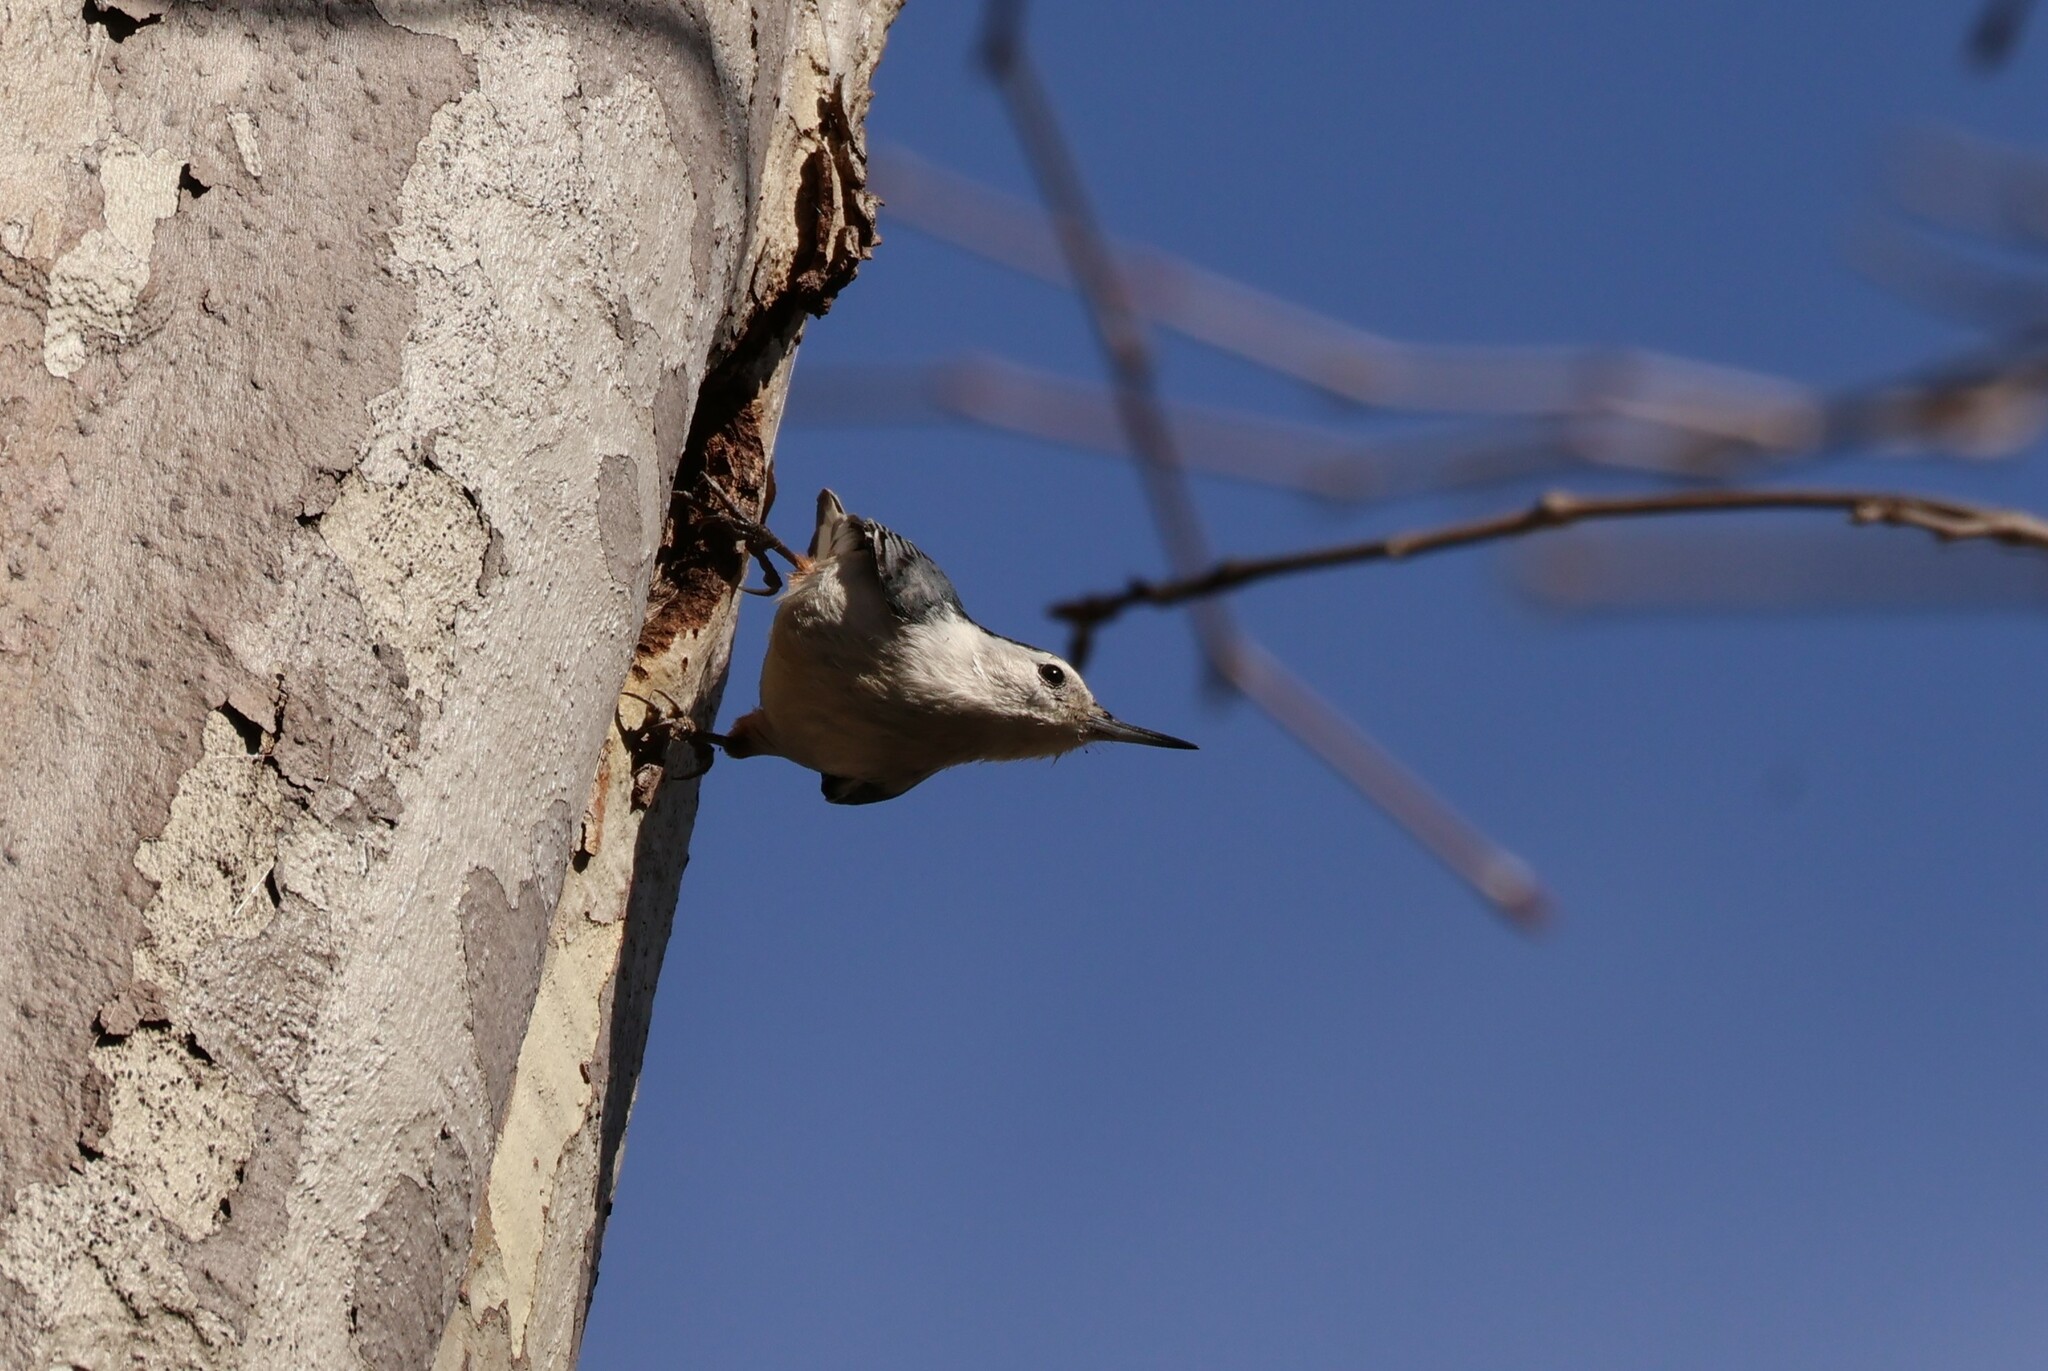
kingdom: Animalia
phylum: Chordata
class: Aves
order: Passeriformes
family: Sittidae
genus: Sitta
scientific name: Sitta carolinensis
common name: White-breasted nuthatch
